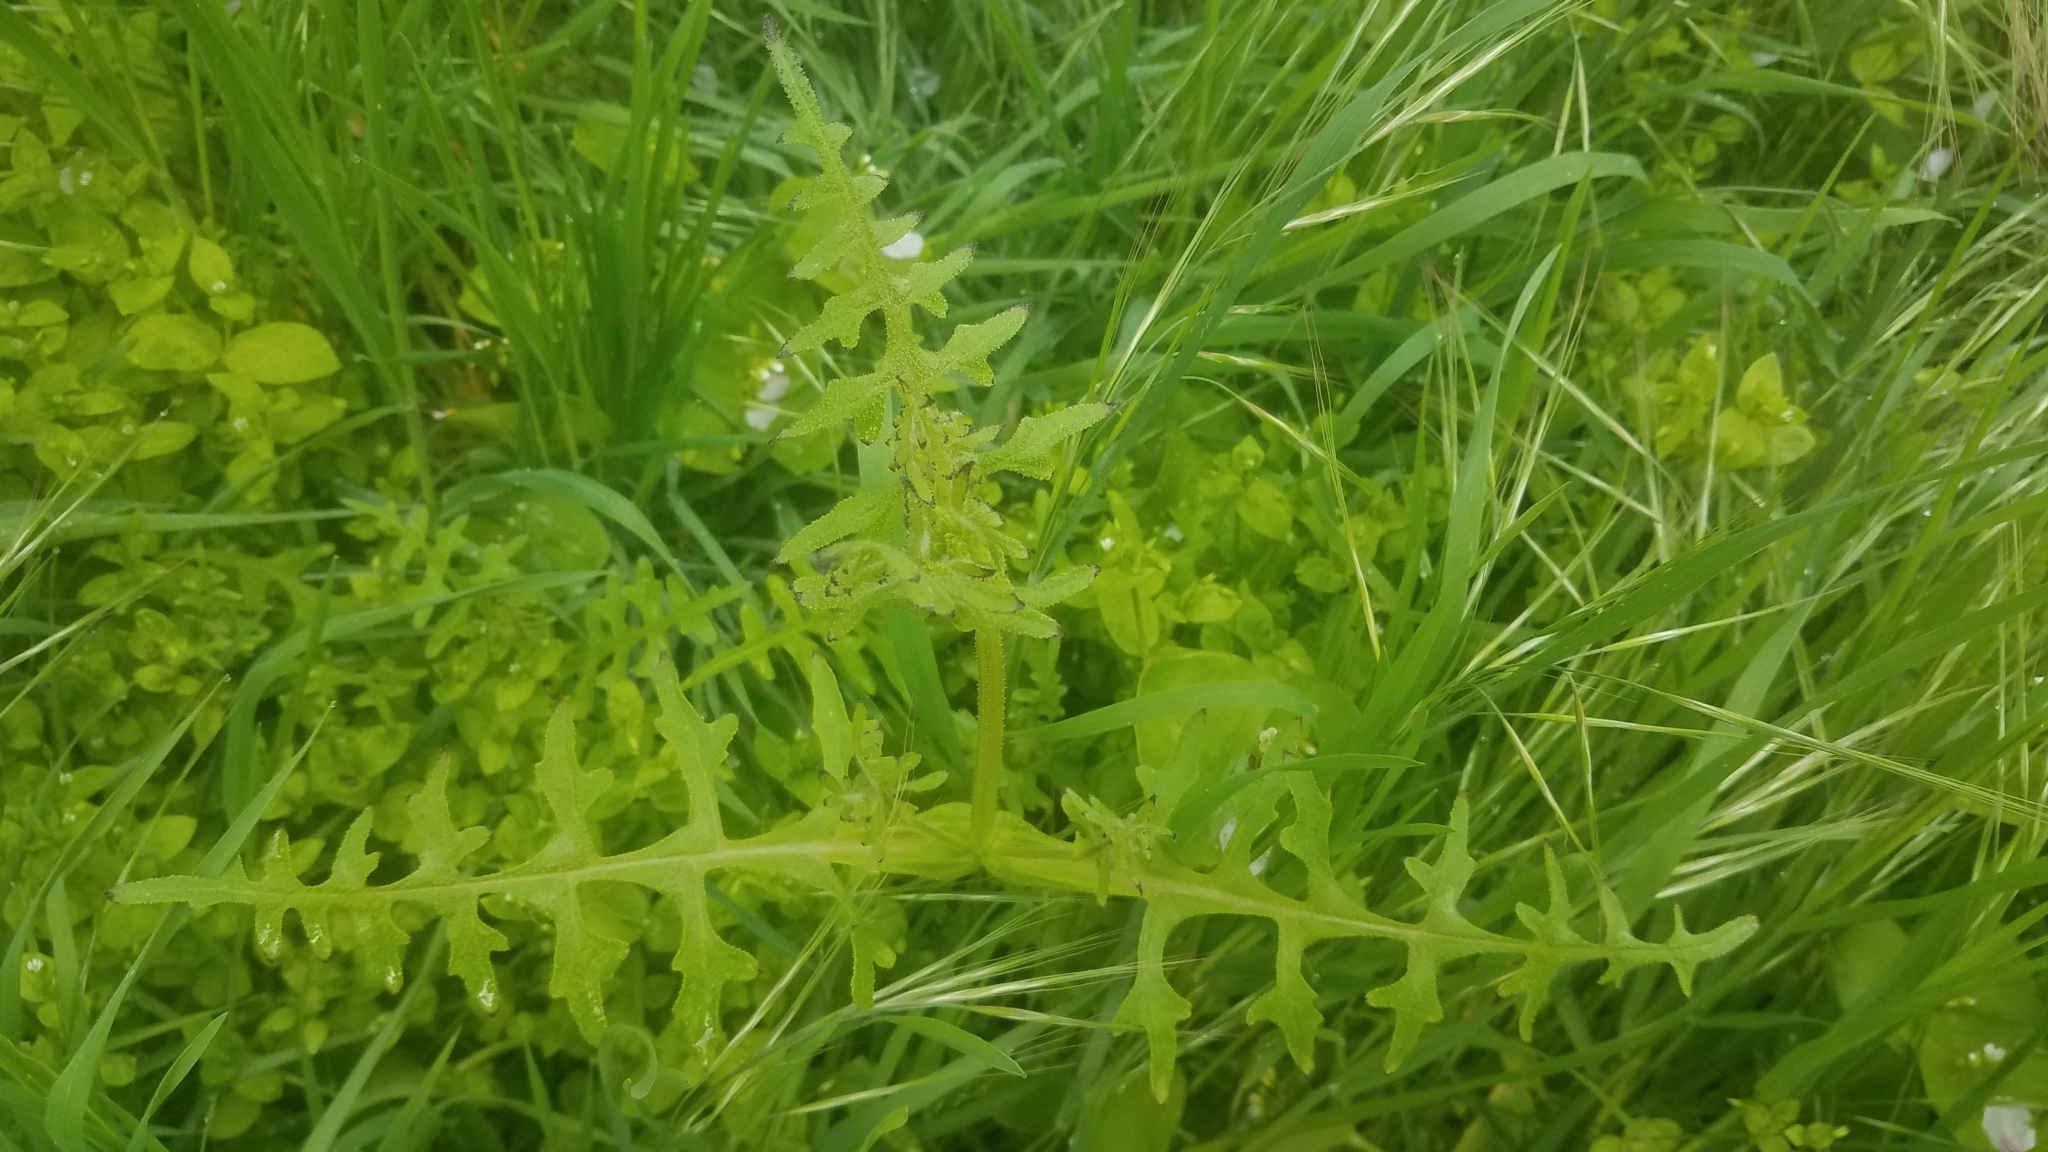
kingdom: Plantae
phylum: Tracheophyta
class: Magnoliopsida
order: Boraginales
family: Hydrophyllaceae
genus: Pholistoma
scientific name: Pholistoma auritum
